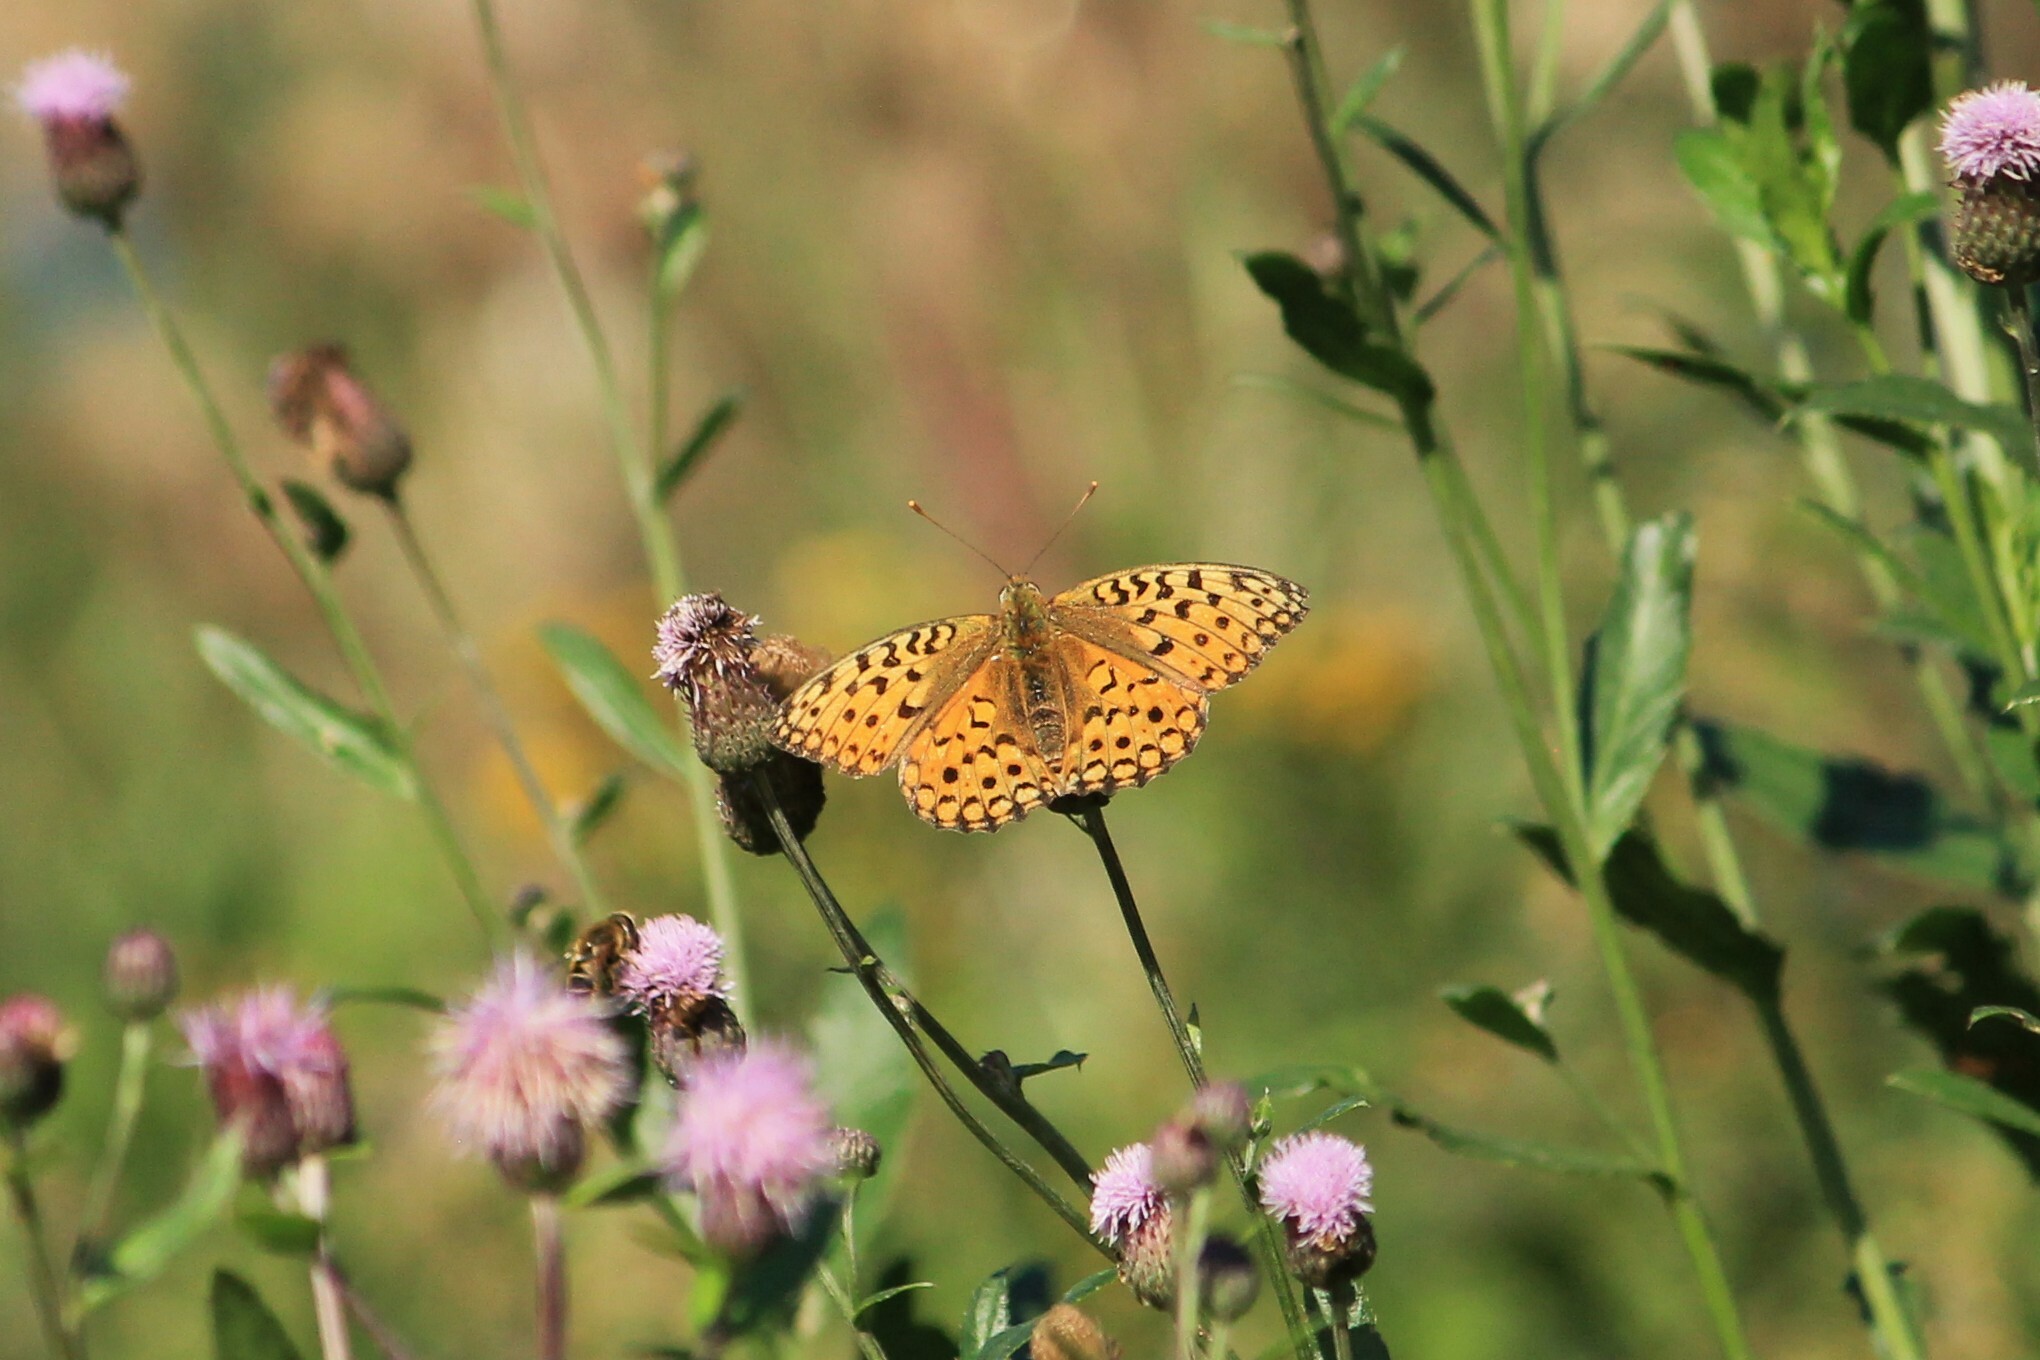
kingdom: Animalia
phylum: Arthropoda
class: Insecta
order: Lepidoptera
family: Nymphalidae
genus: Fabriciana
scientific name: Fabriciana adippe
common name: High brown fritillary
